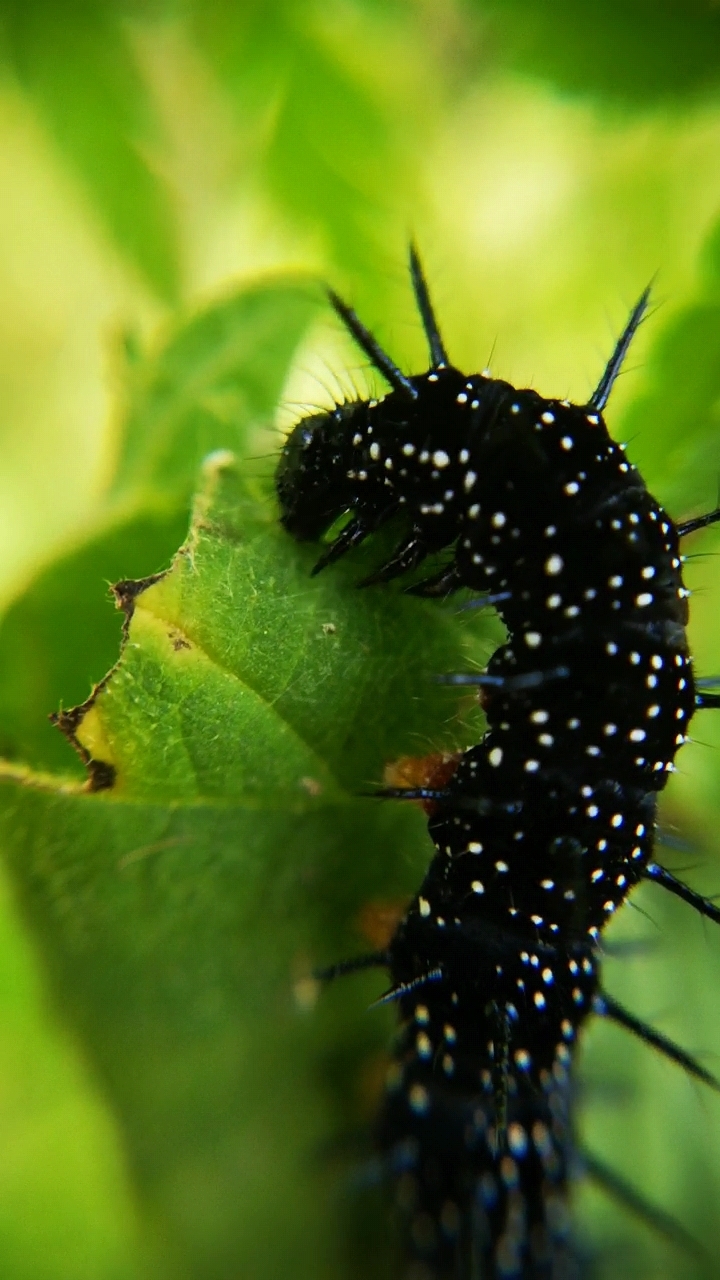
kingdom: Animalia
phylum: Arthropoda
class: Insecta
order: Lepidoptera
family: Nymphalidae
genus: Aglais
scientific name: Aglais io
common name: Peacock
